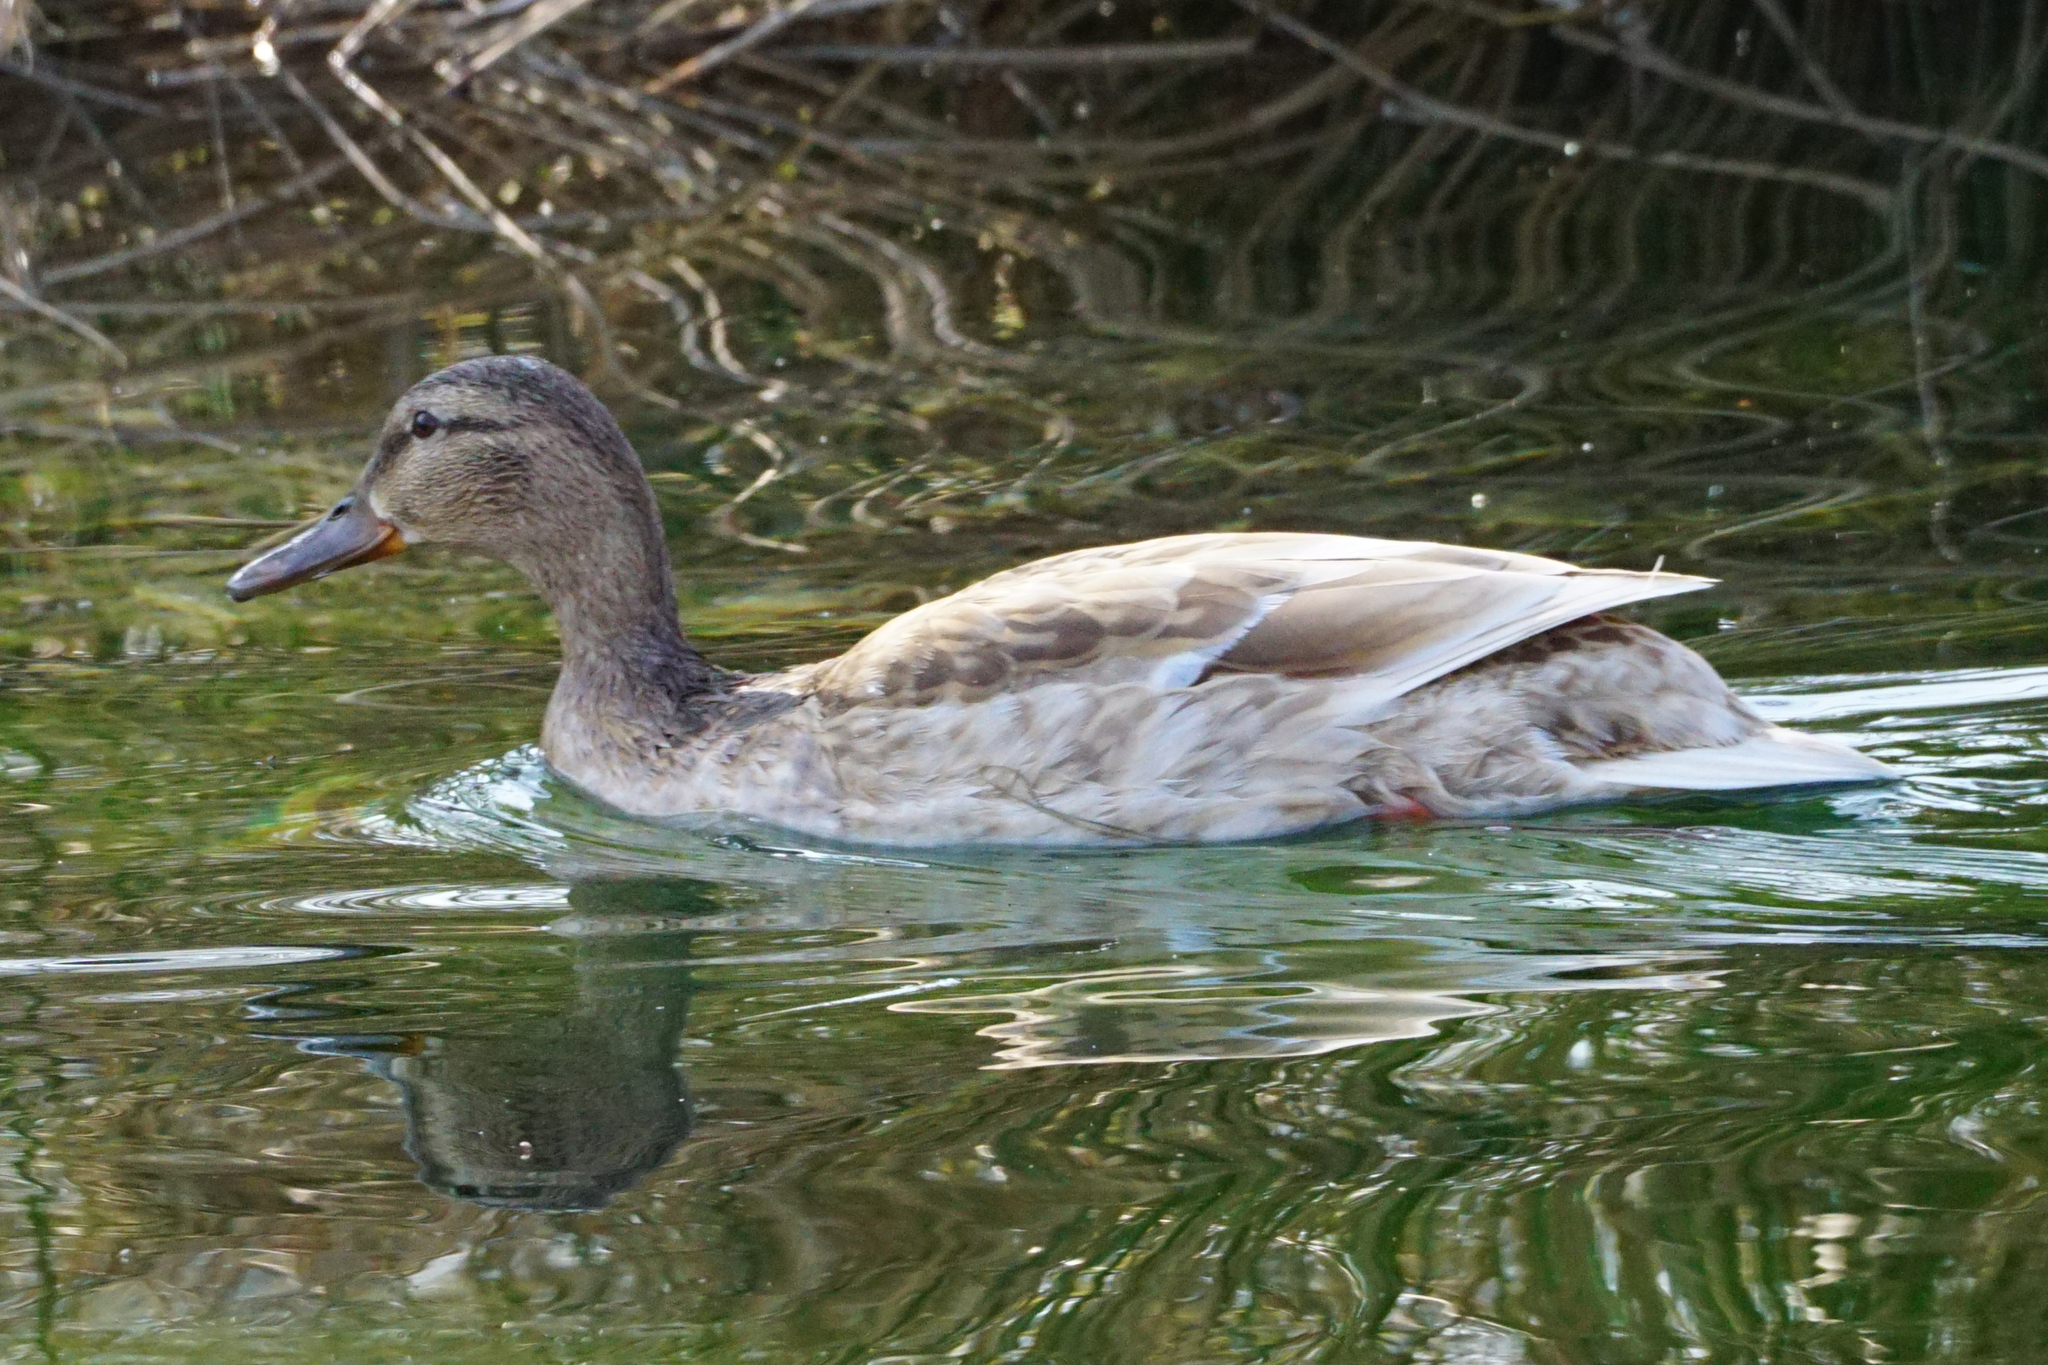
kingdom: Animalia
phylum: Chordata
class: Aves
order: Anseriformes
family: Anatidae
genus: Anas
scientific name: Anas platyrhynchos
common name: Mallard
